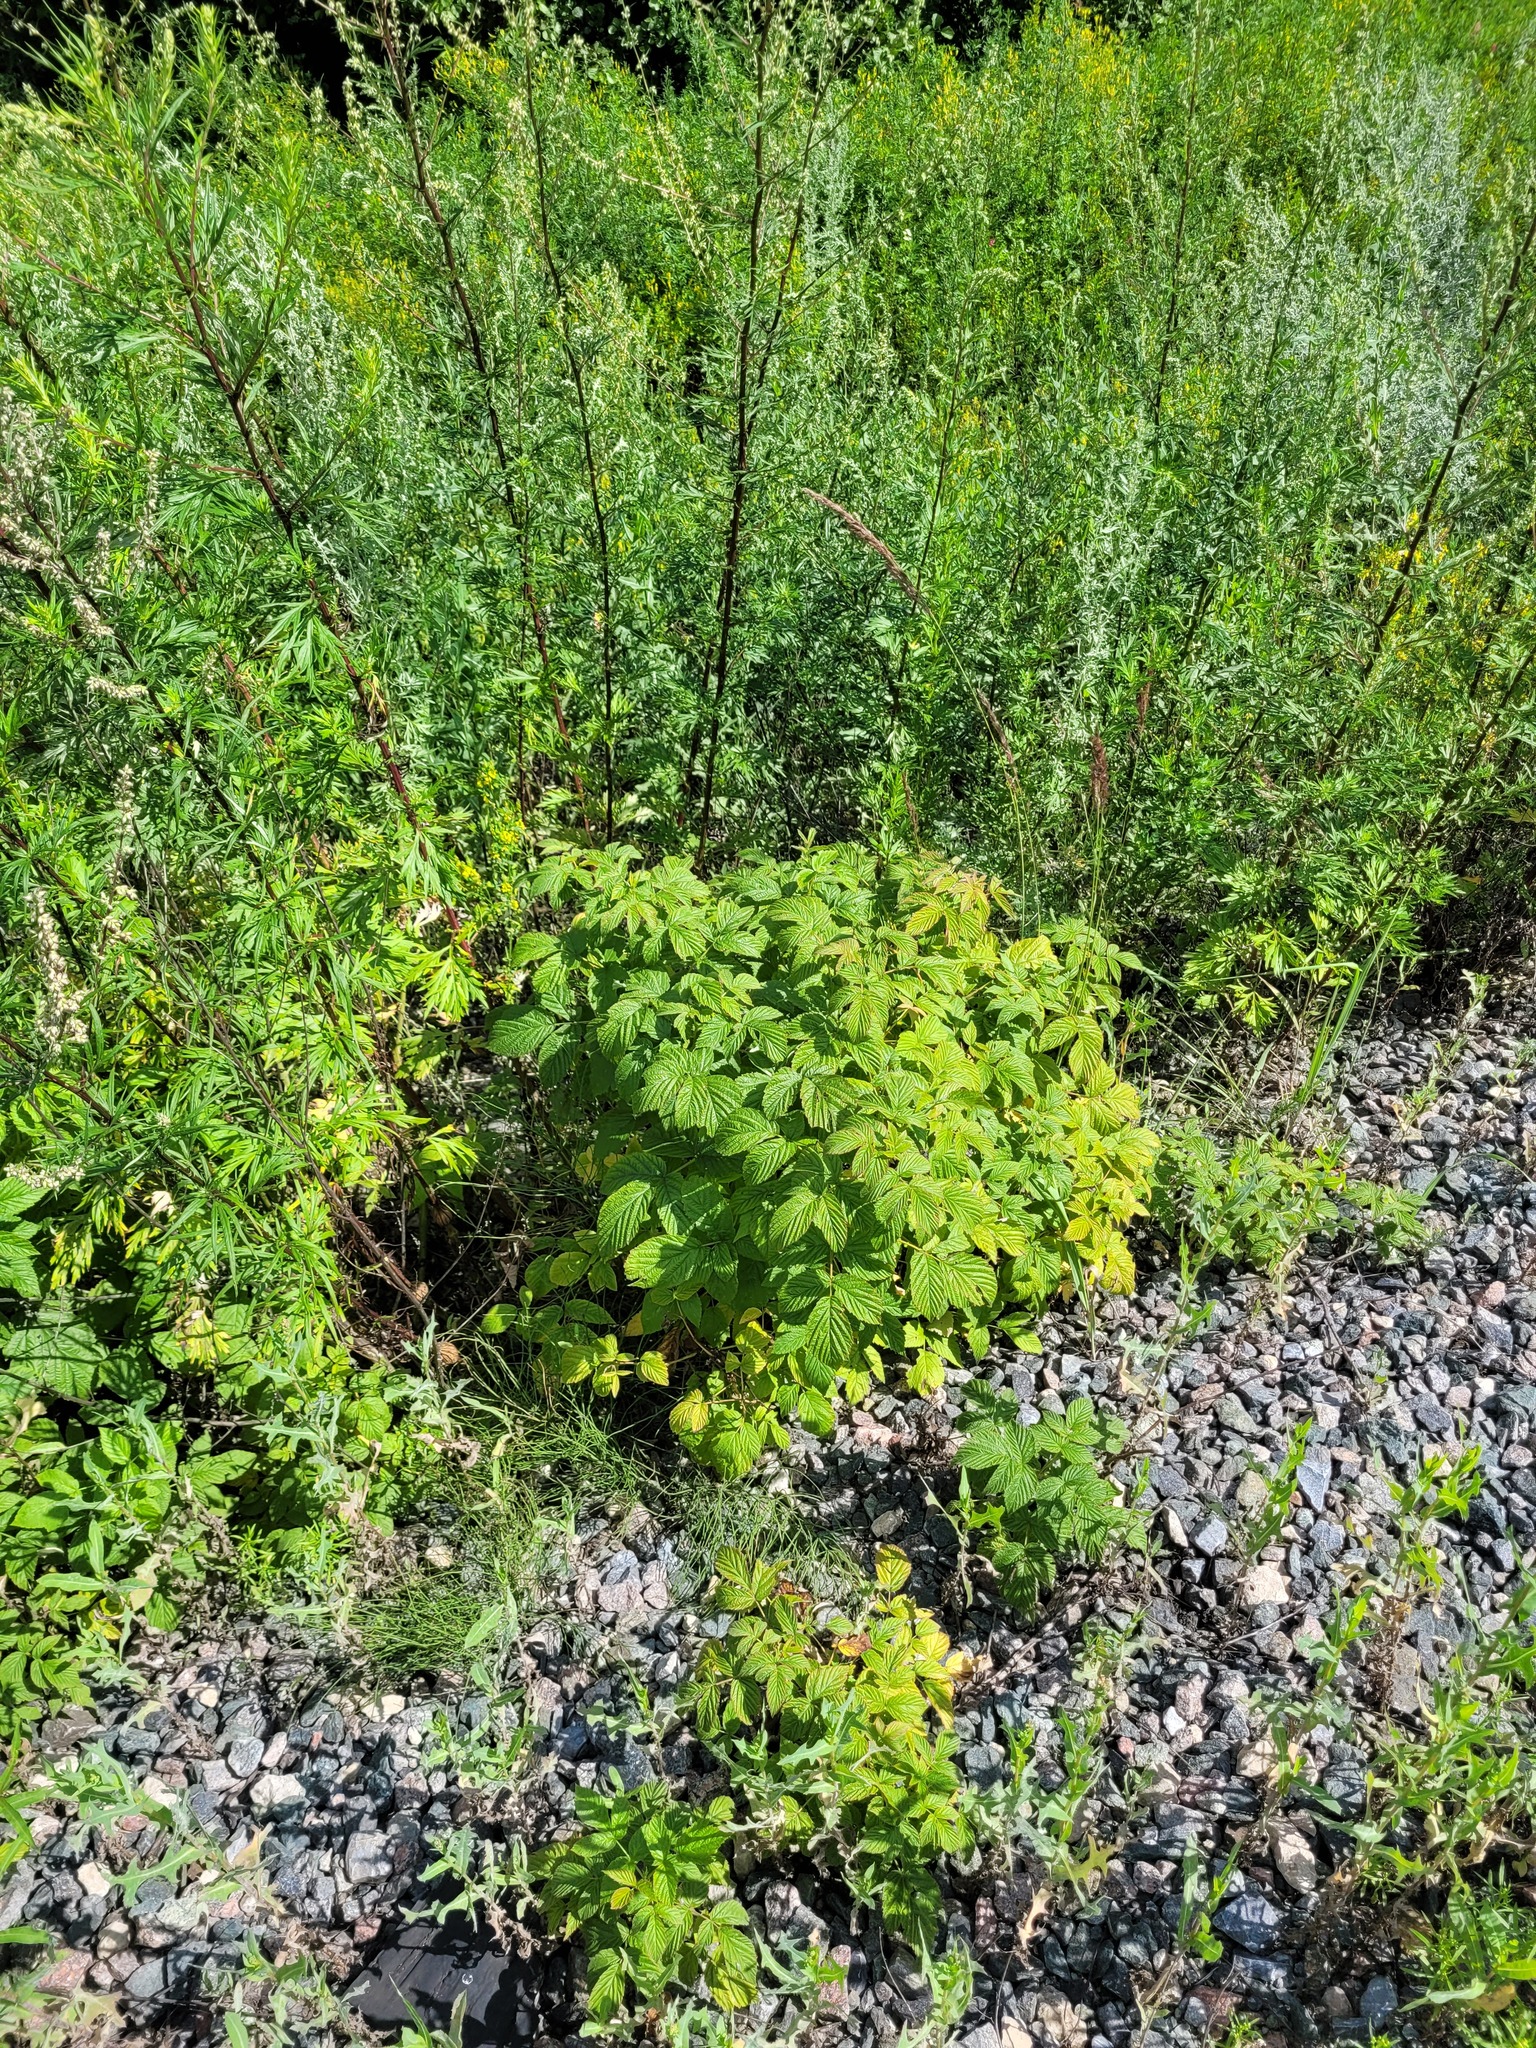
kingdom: Plantae
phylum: Tracheophyta
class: Magnoliopsida
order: Rosales
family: Rosaceae
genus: Rubus
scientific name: Rubus idaeus
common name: Raspberry
